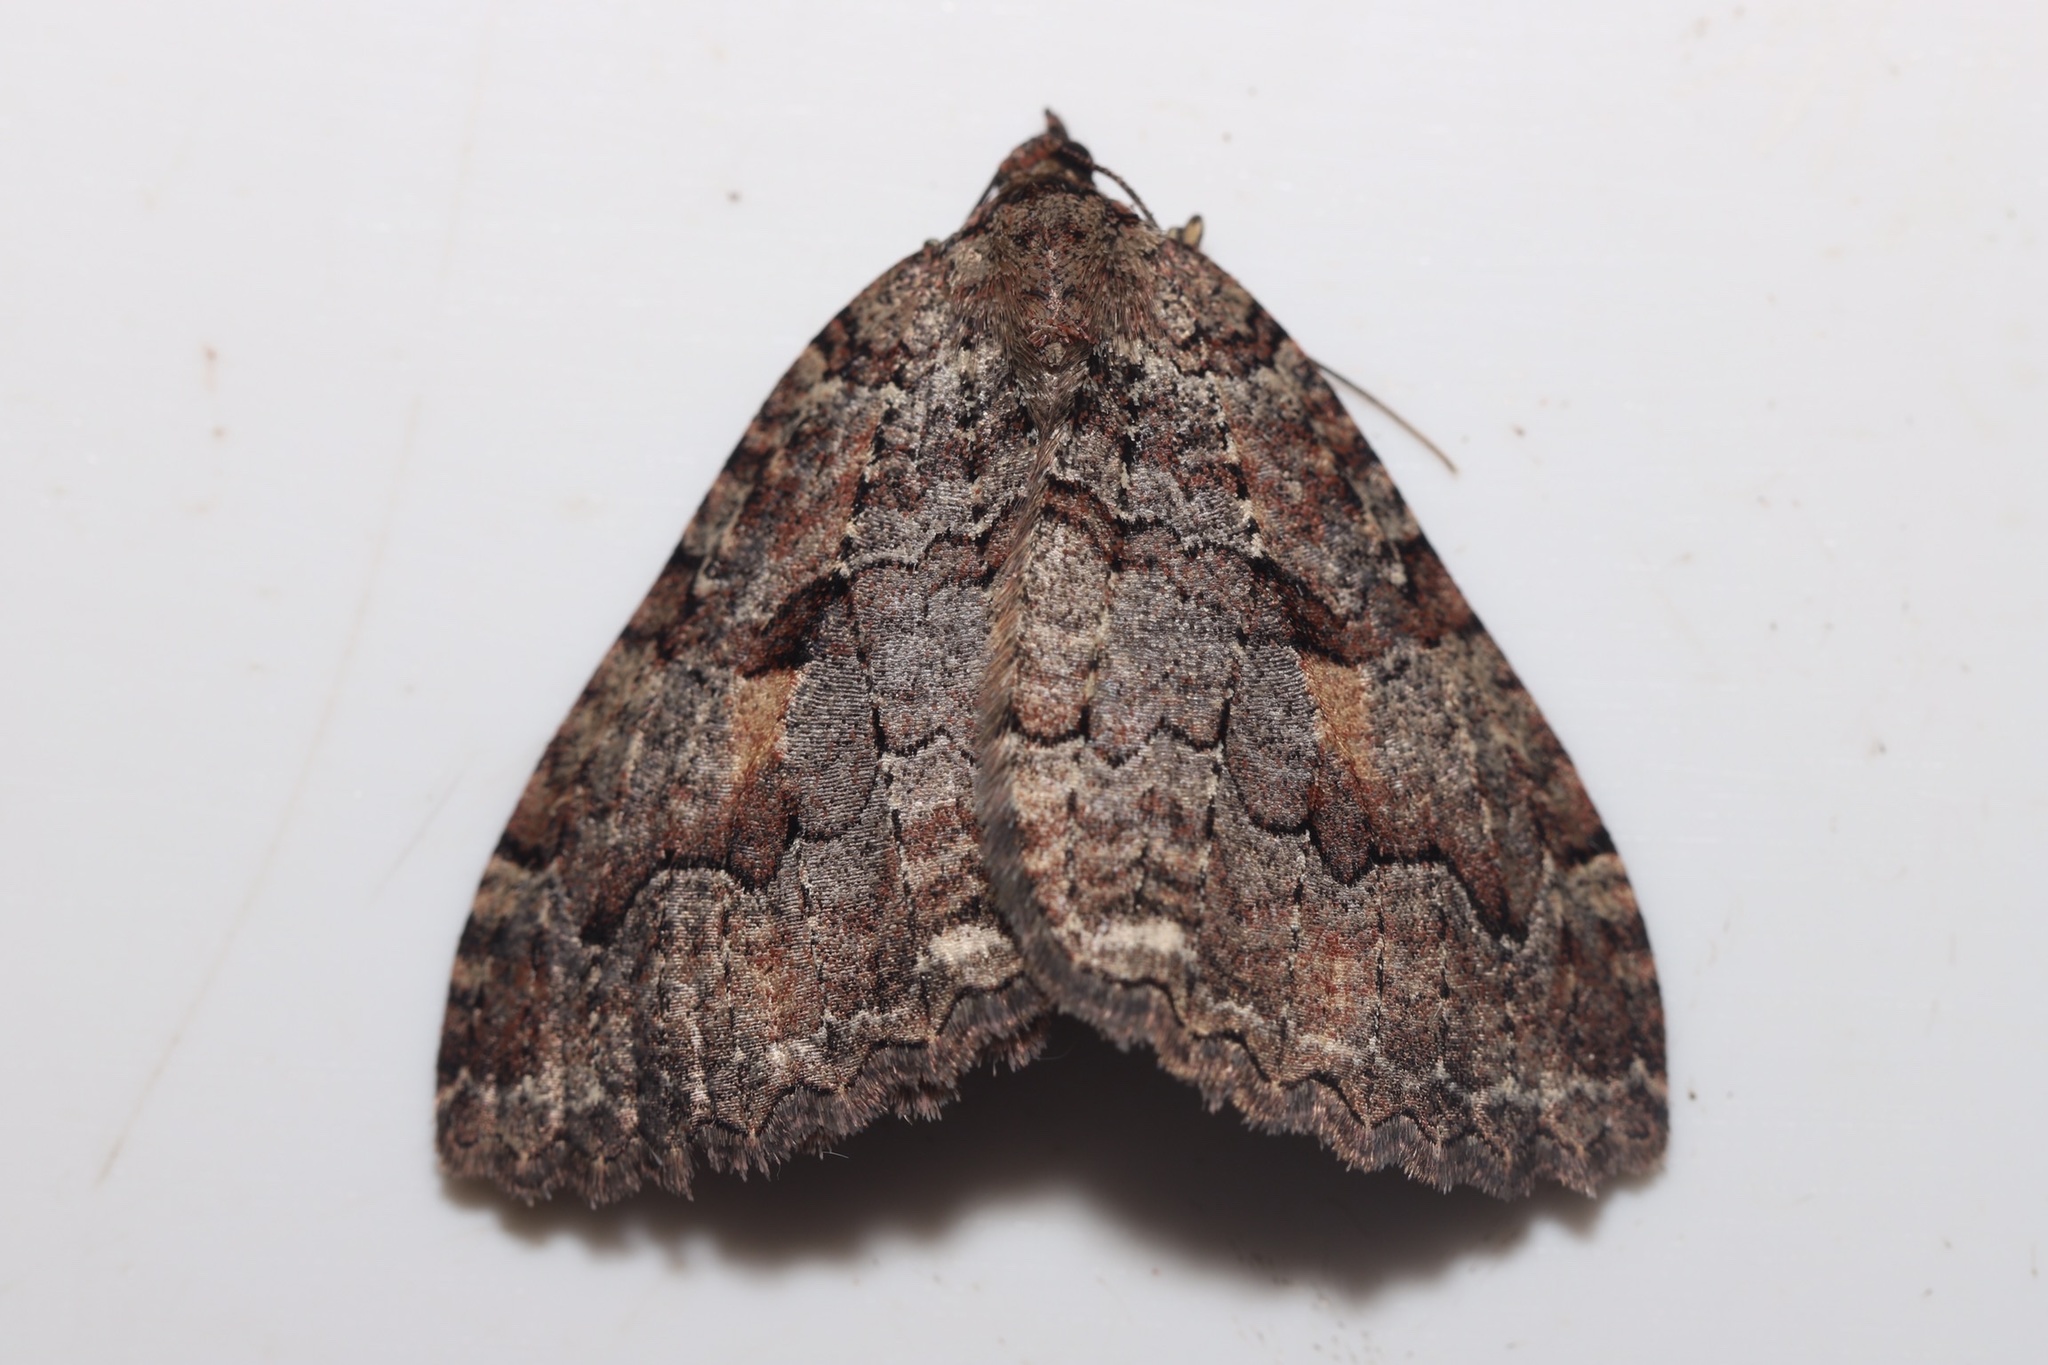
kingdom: Animalia
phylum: Arthropoda
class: Insecta
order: Lepidoptera
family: Geometridae
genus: Triphosa
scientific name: Triphosa haesitata
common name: Tissue moth
